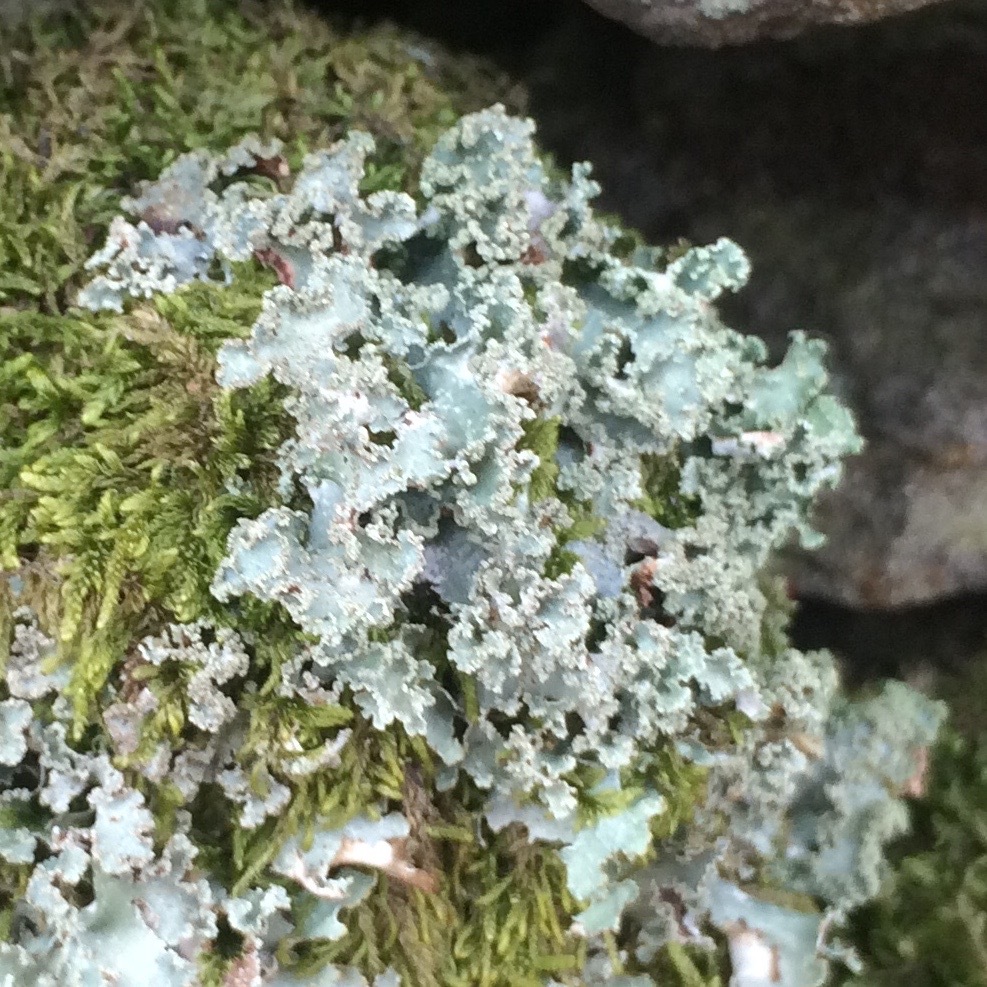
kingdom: Fungi
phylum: Ascomycota
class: Lecanoromycetes
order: Lecanorales
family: Parmeliaceae
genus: Platismatia
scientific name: Platismatia glauca
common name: Varied rag lichen
